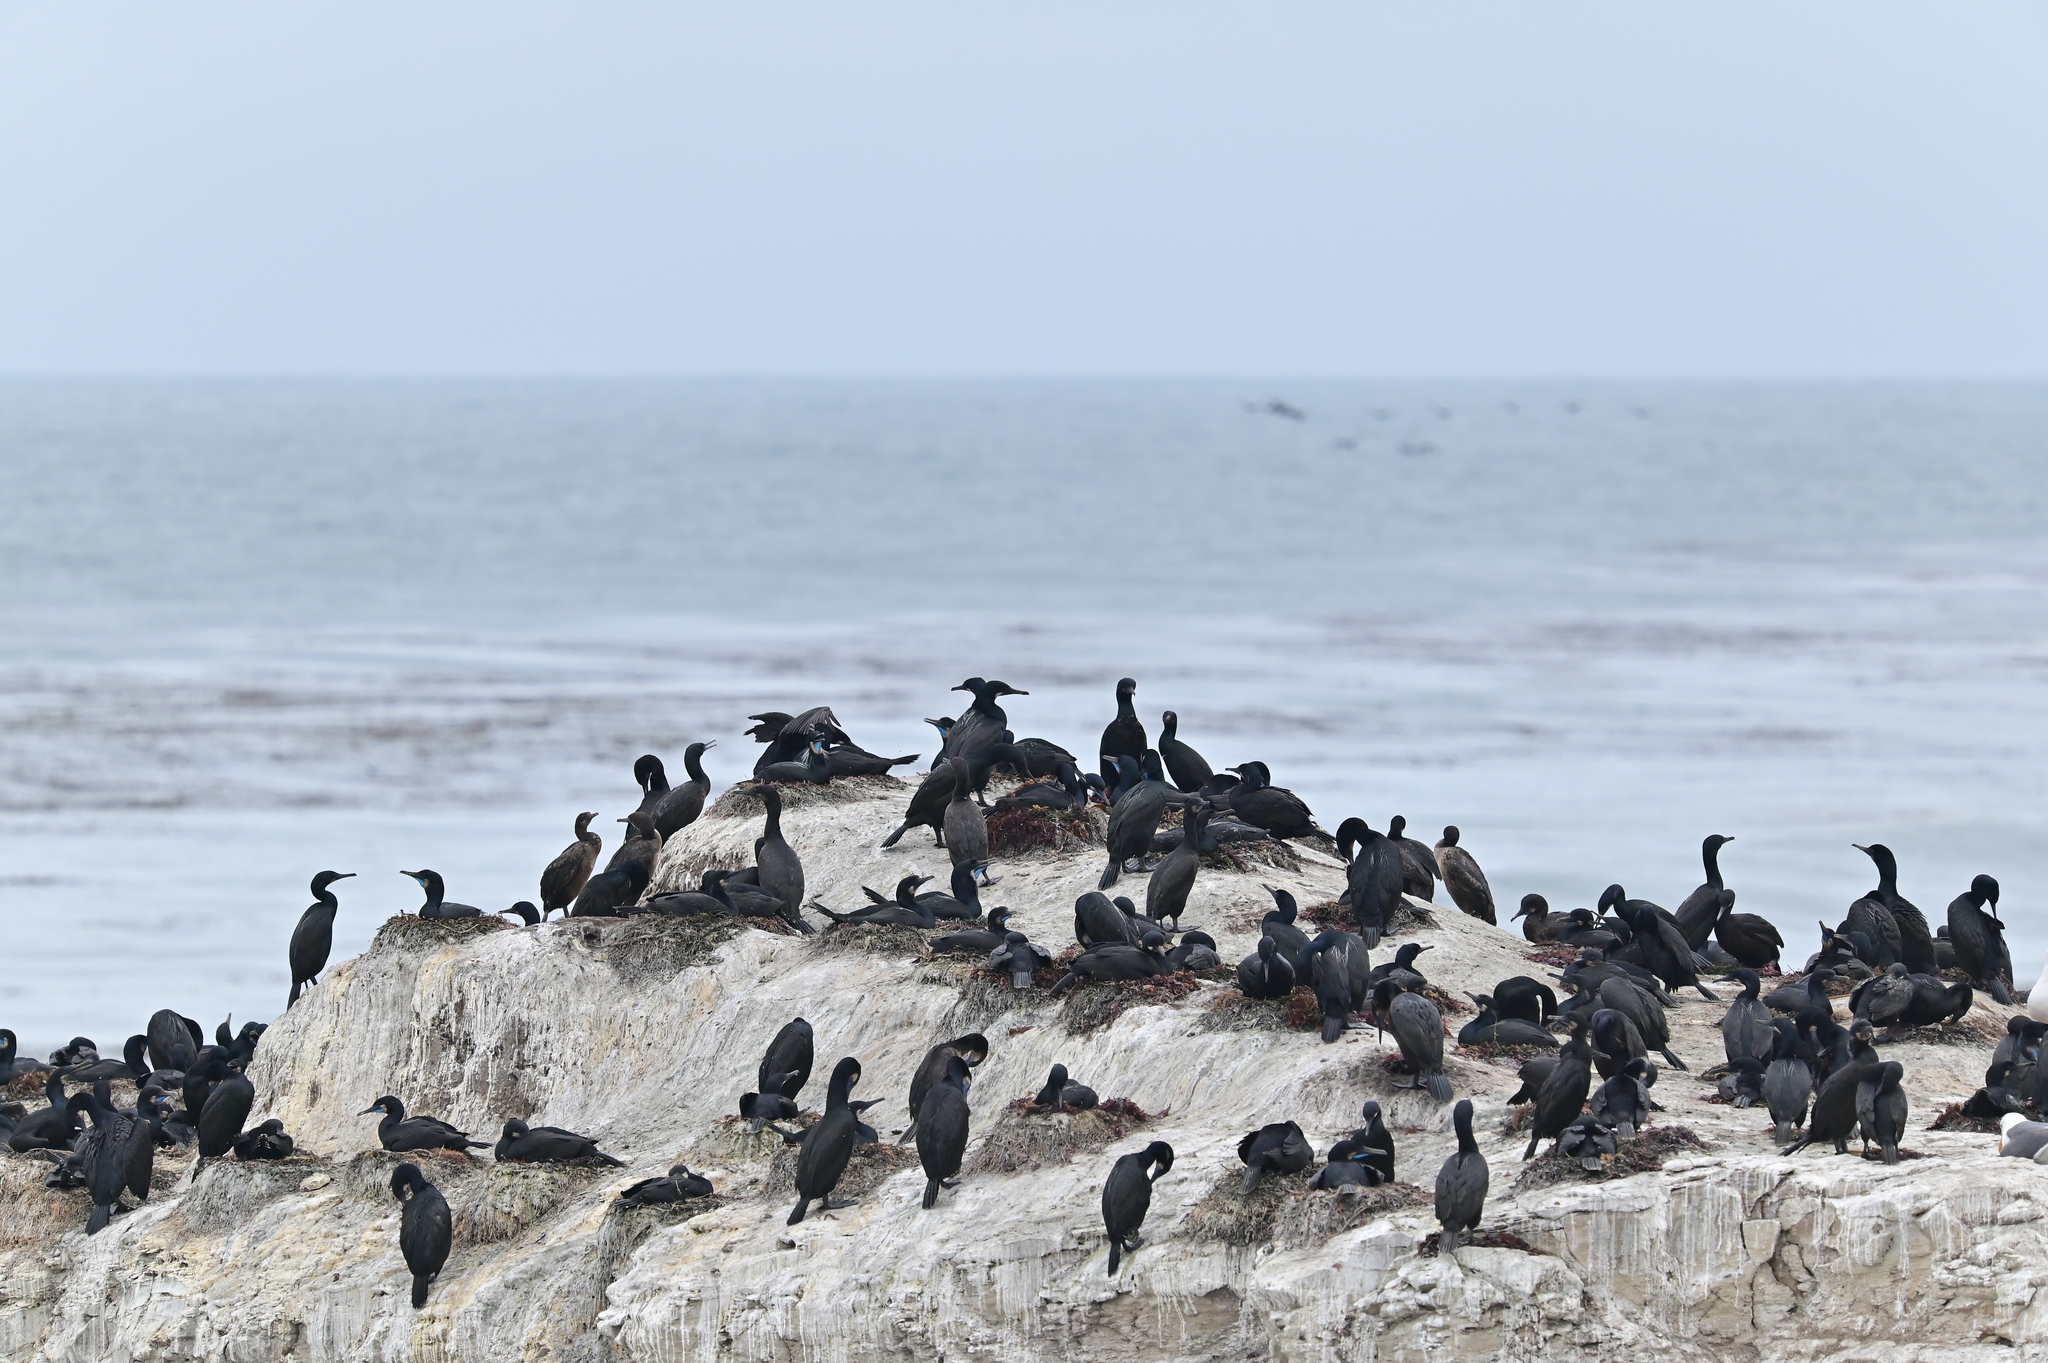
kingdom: Animalia
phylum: Chordata
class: Aves
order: Suliformes
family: Phalacrocoracidae
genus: Urile
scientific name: Urile penicillatus
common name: Brandt's cormorant
